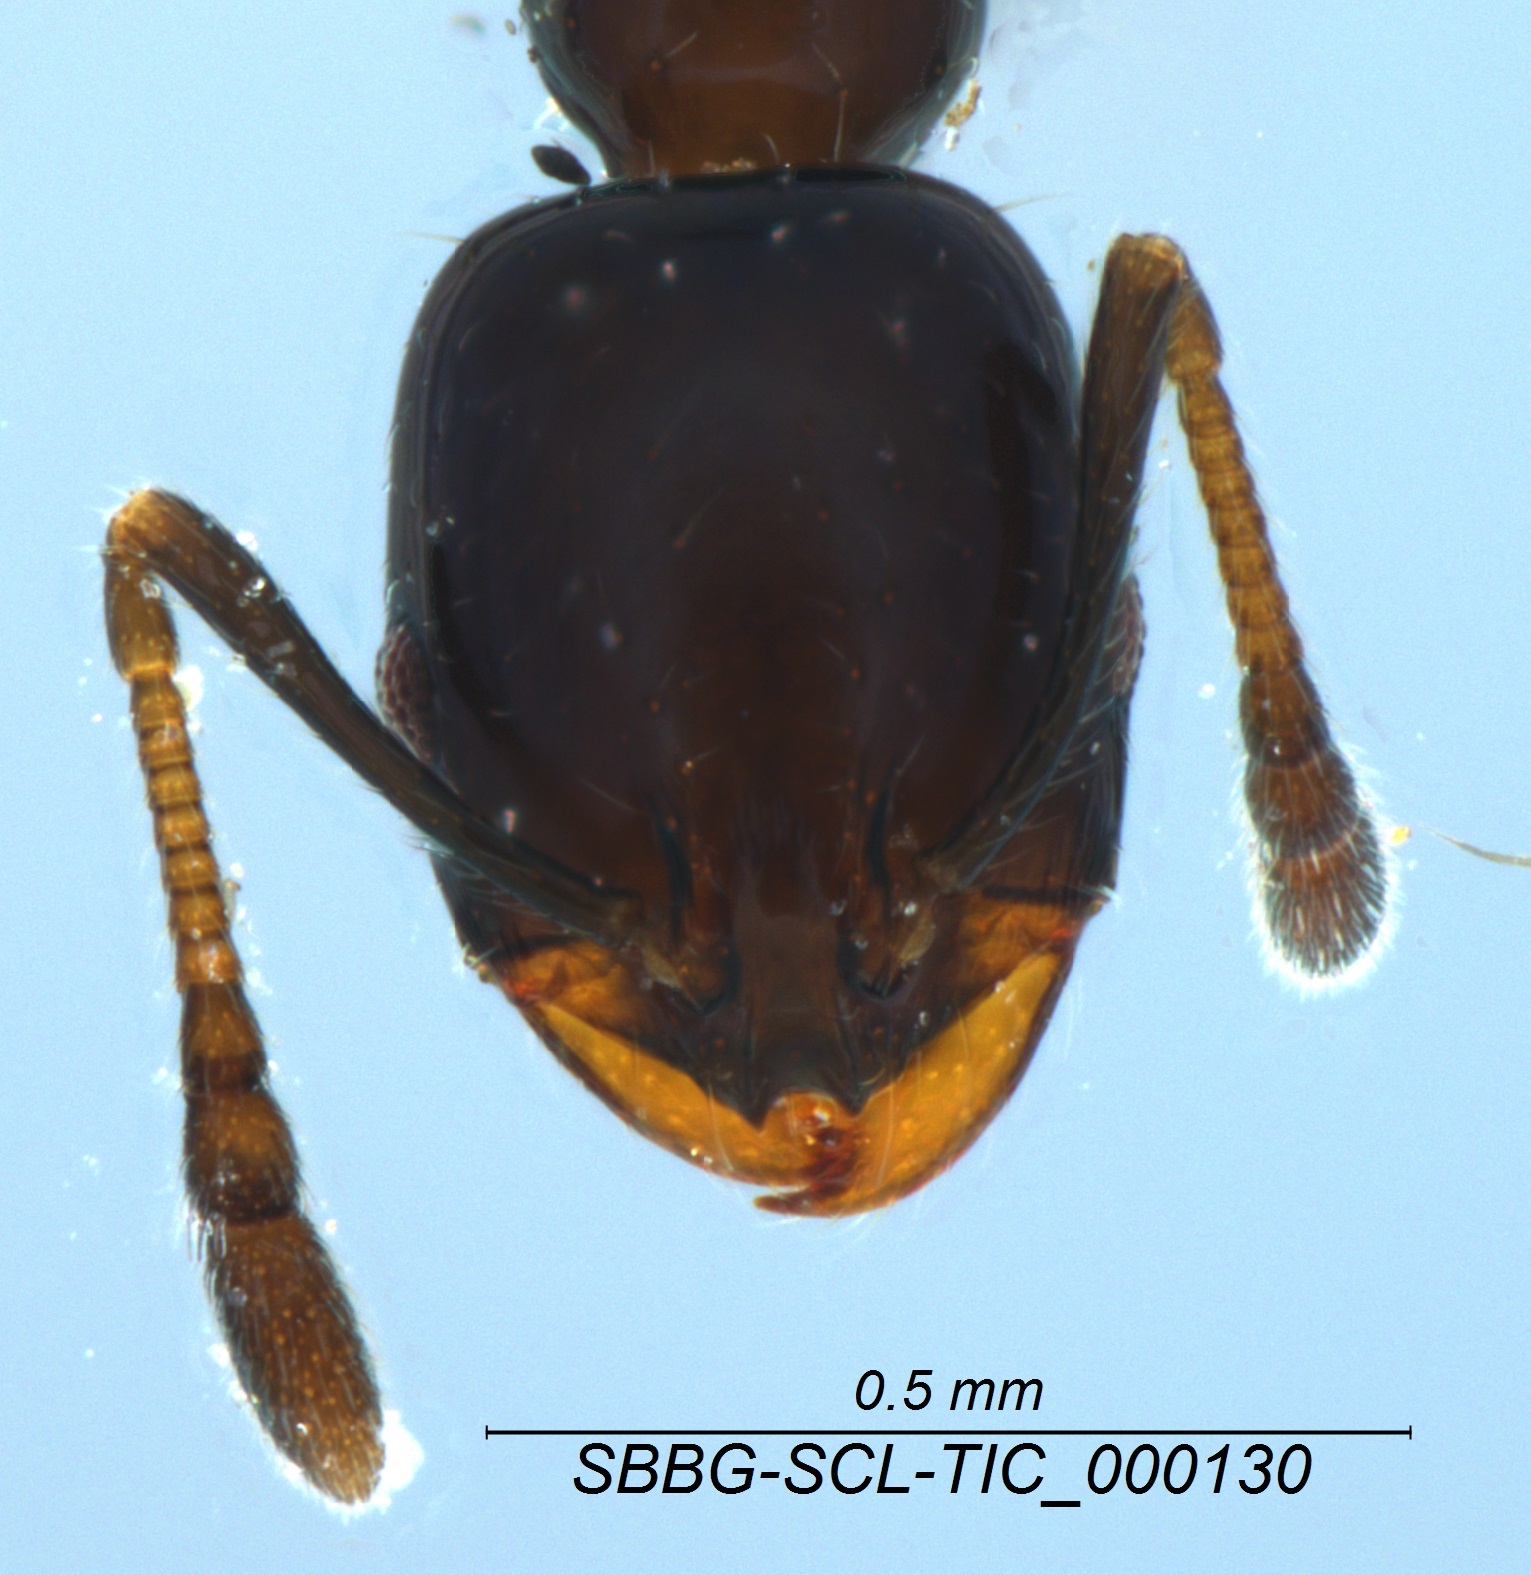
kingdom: Animalia
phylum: Arthropoda
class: Insecta
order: Hymenoptera
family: Formicidae
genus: Monomorium
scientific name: Monomorium ergatogyna
